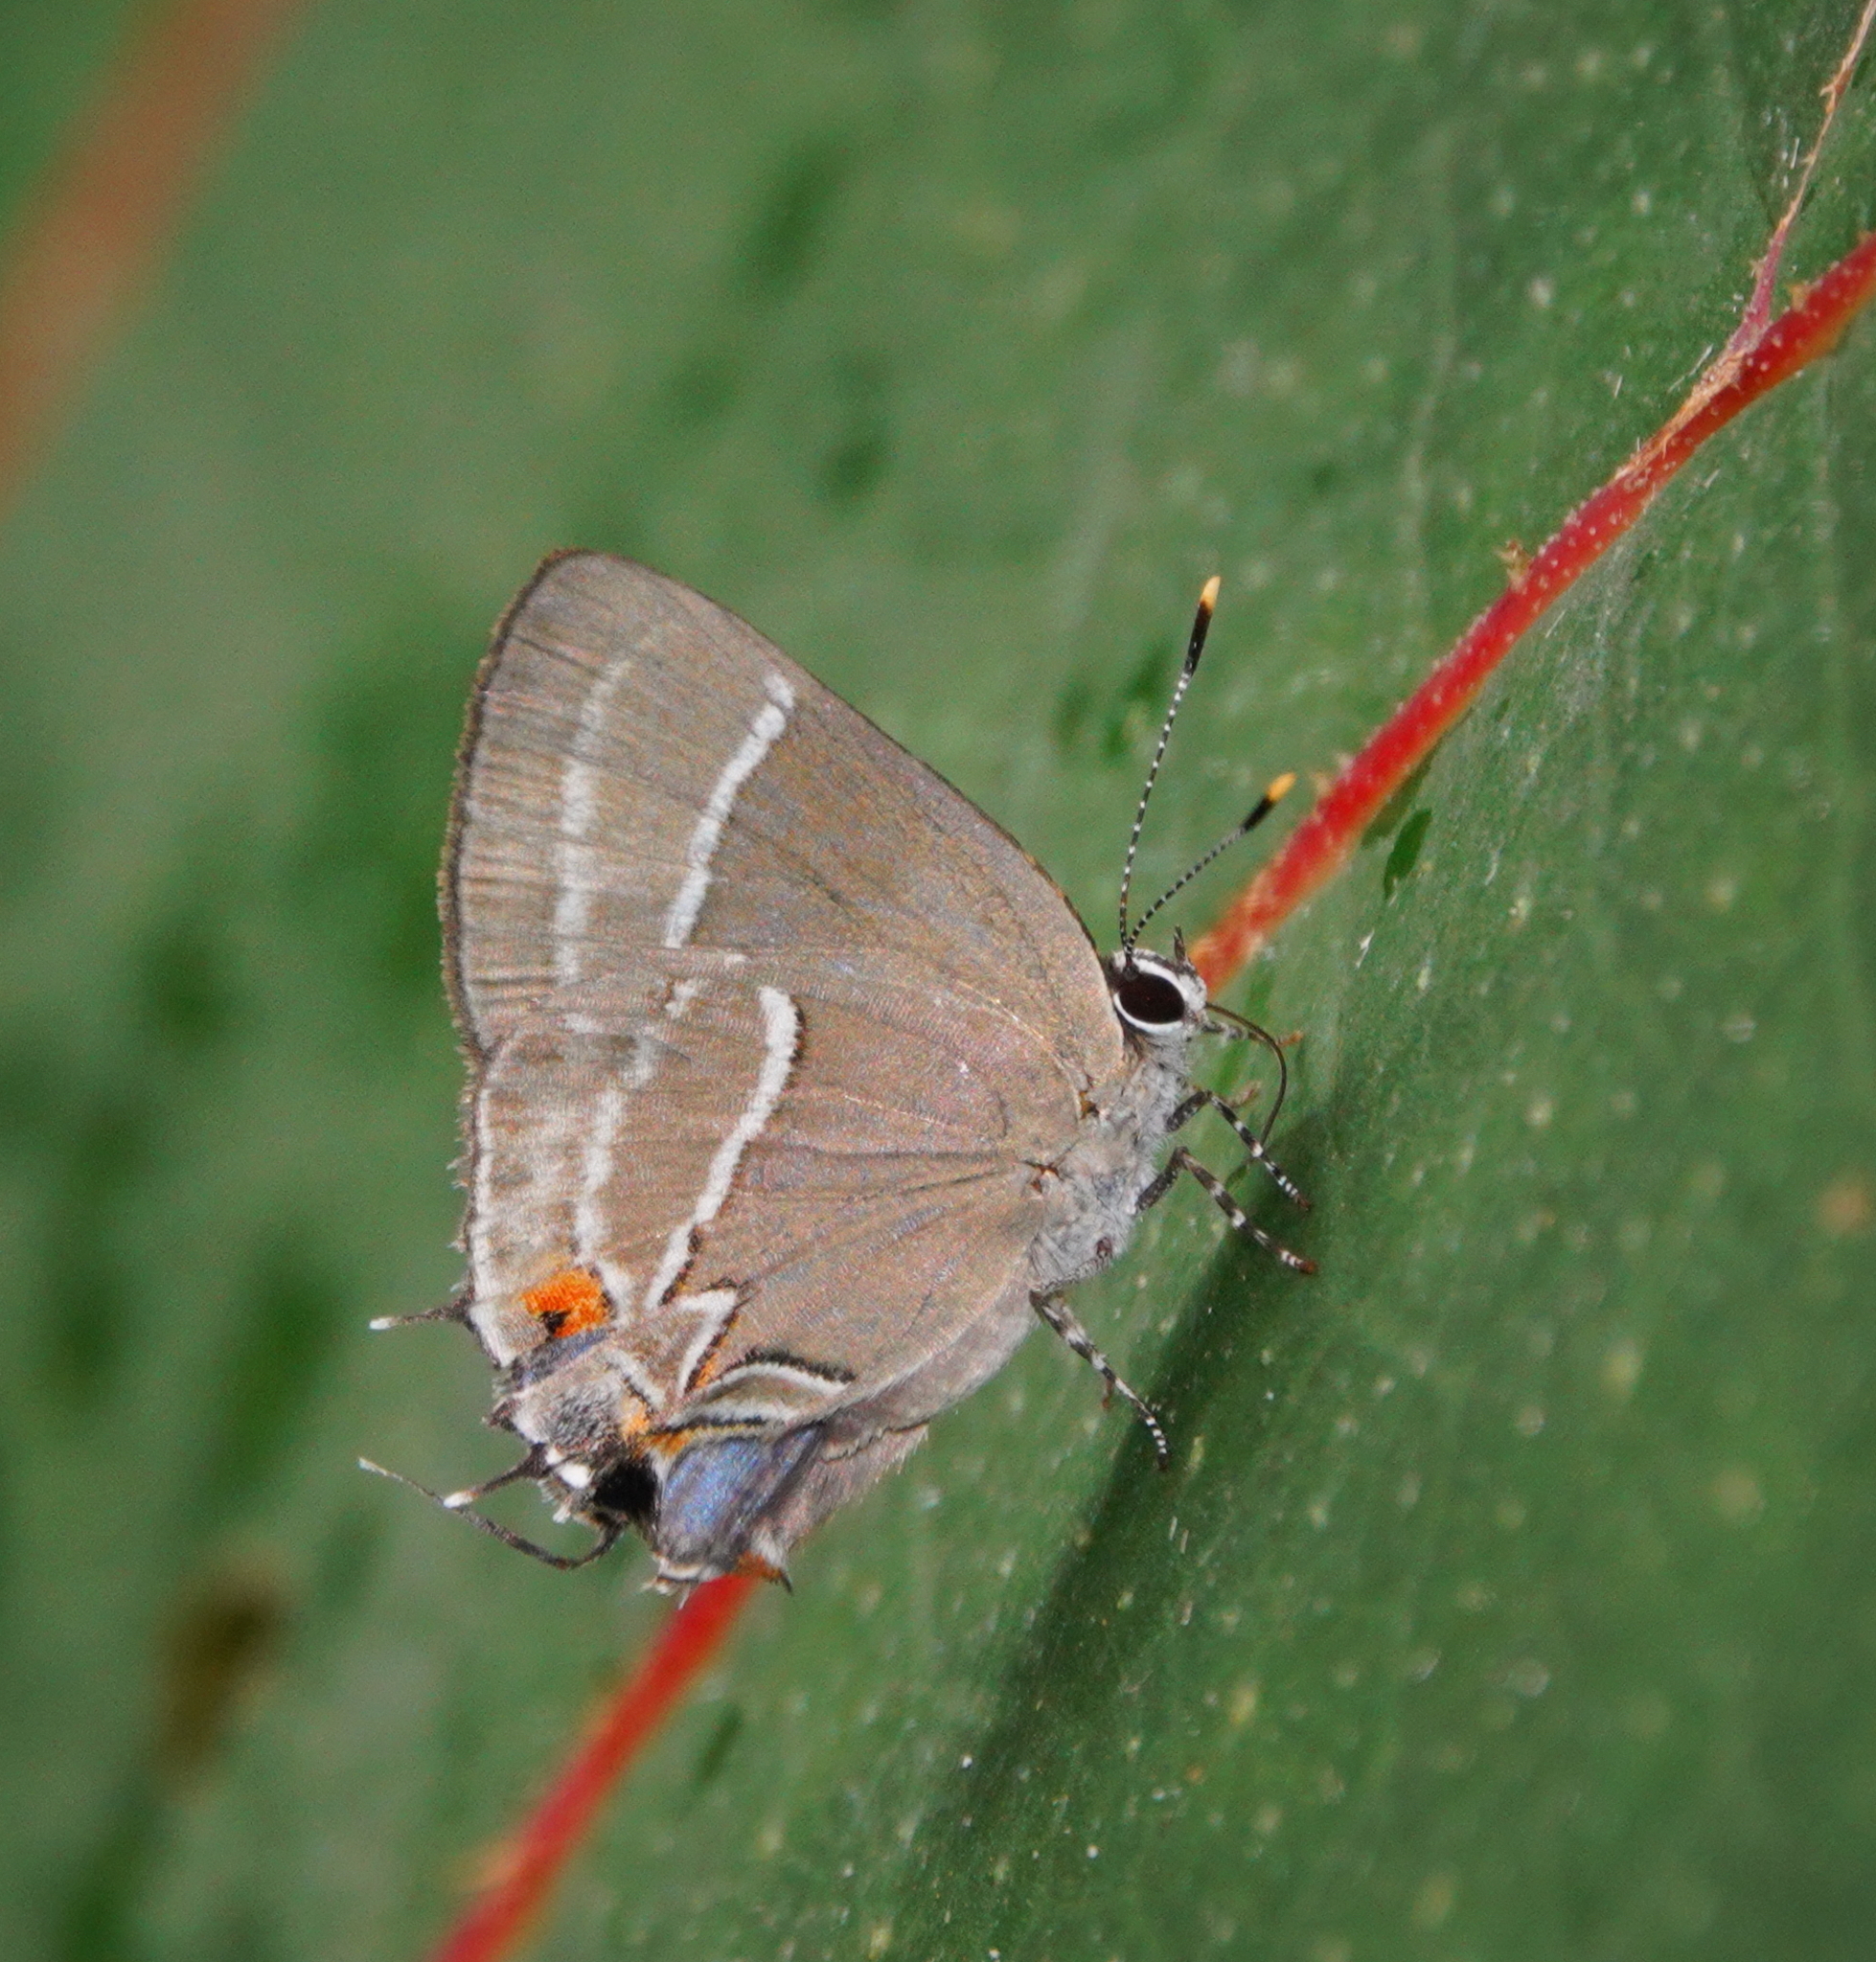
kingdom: Animalia
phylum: Arthropoda
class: Insecta
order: Lepidoptera
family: Lycaenidae
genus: Thecla
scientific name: Thecla coelicolor
